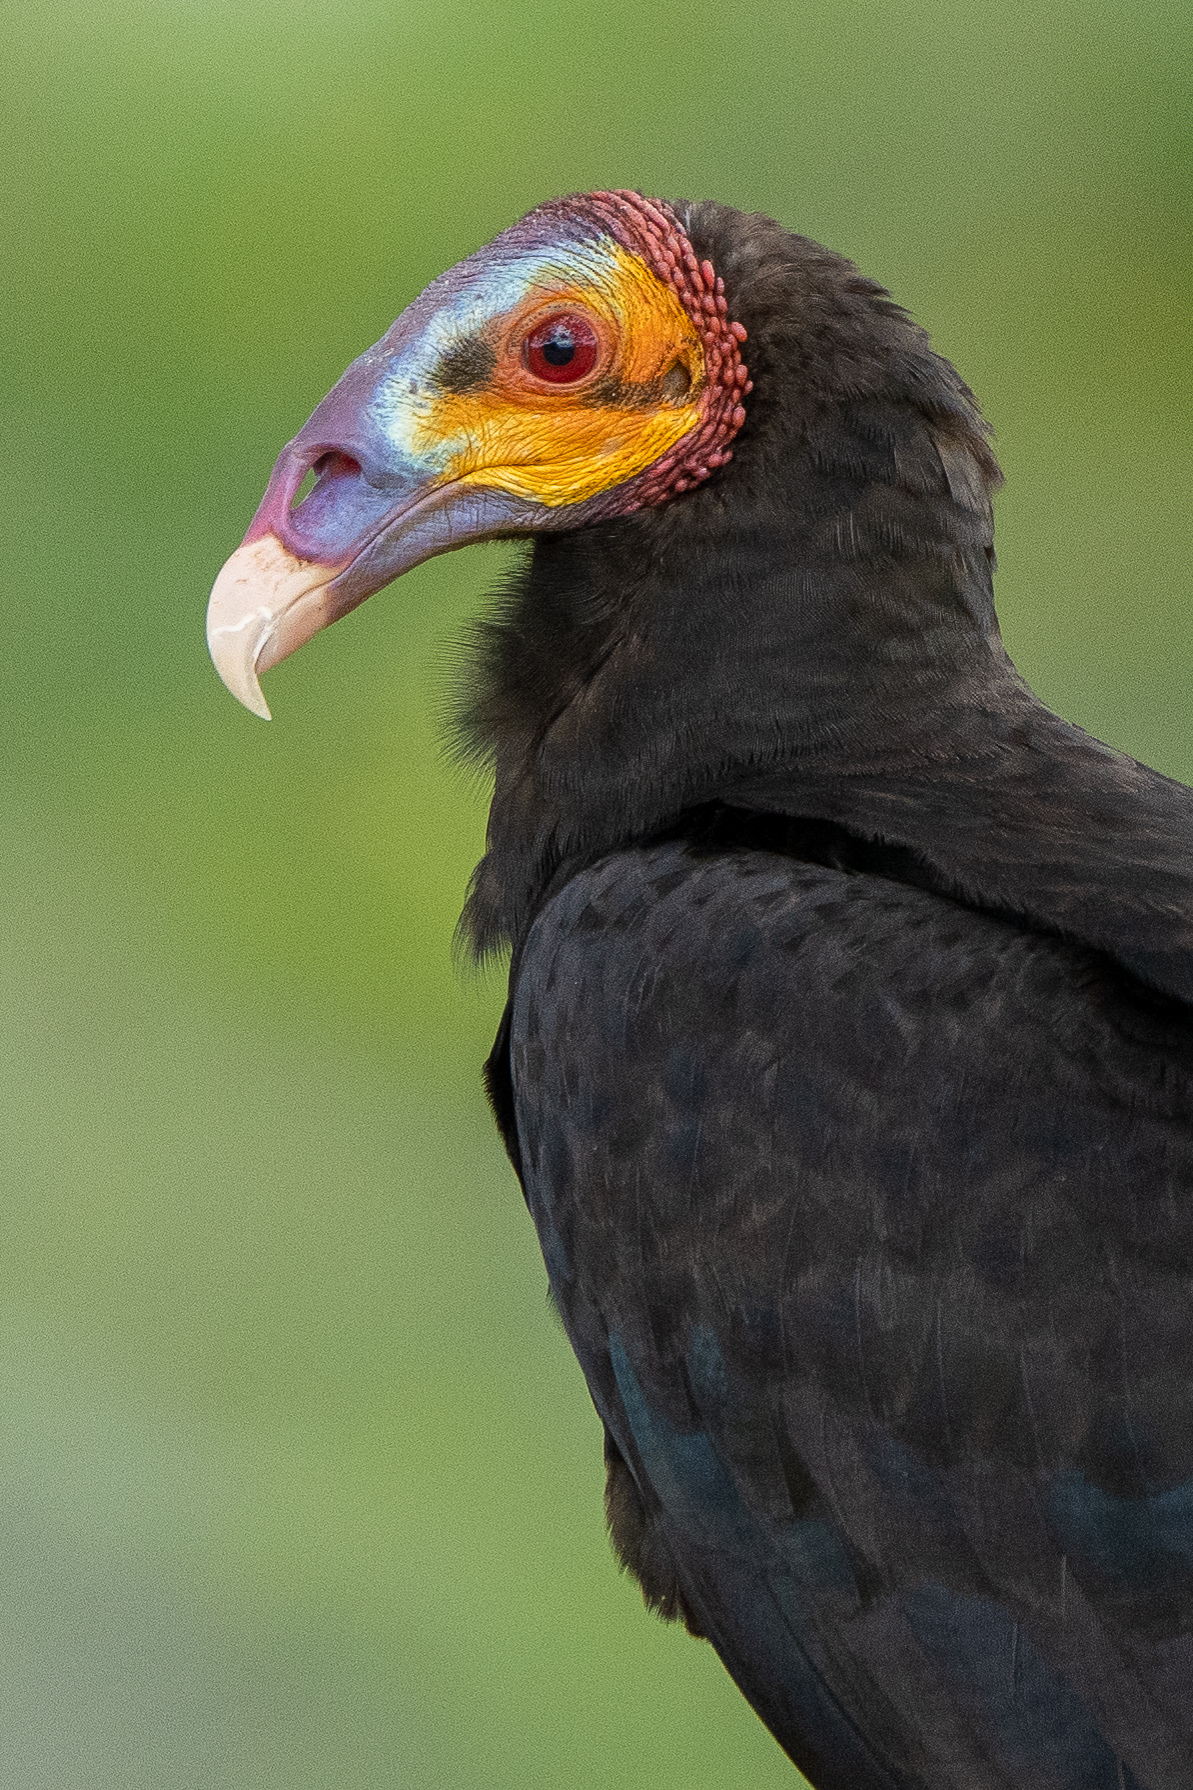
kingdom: Animalia
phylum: Chordata
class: Aves
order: Accipitriformes
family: Cathartidae
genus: Cathartes
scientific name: Cathartes burrovianus
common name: Lesser yellow-headed vulture
